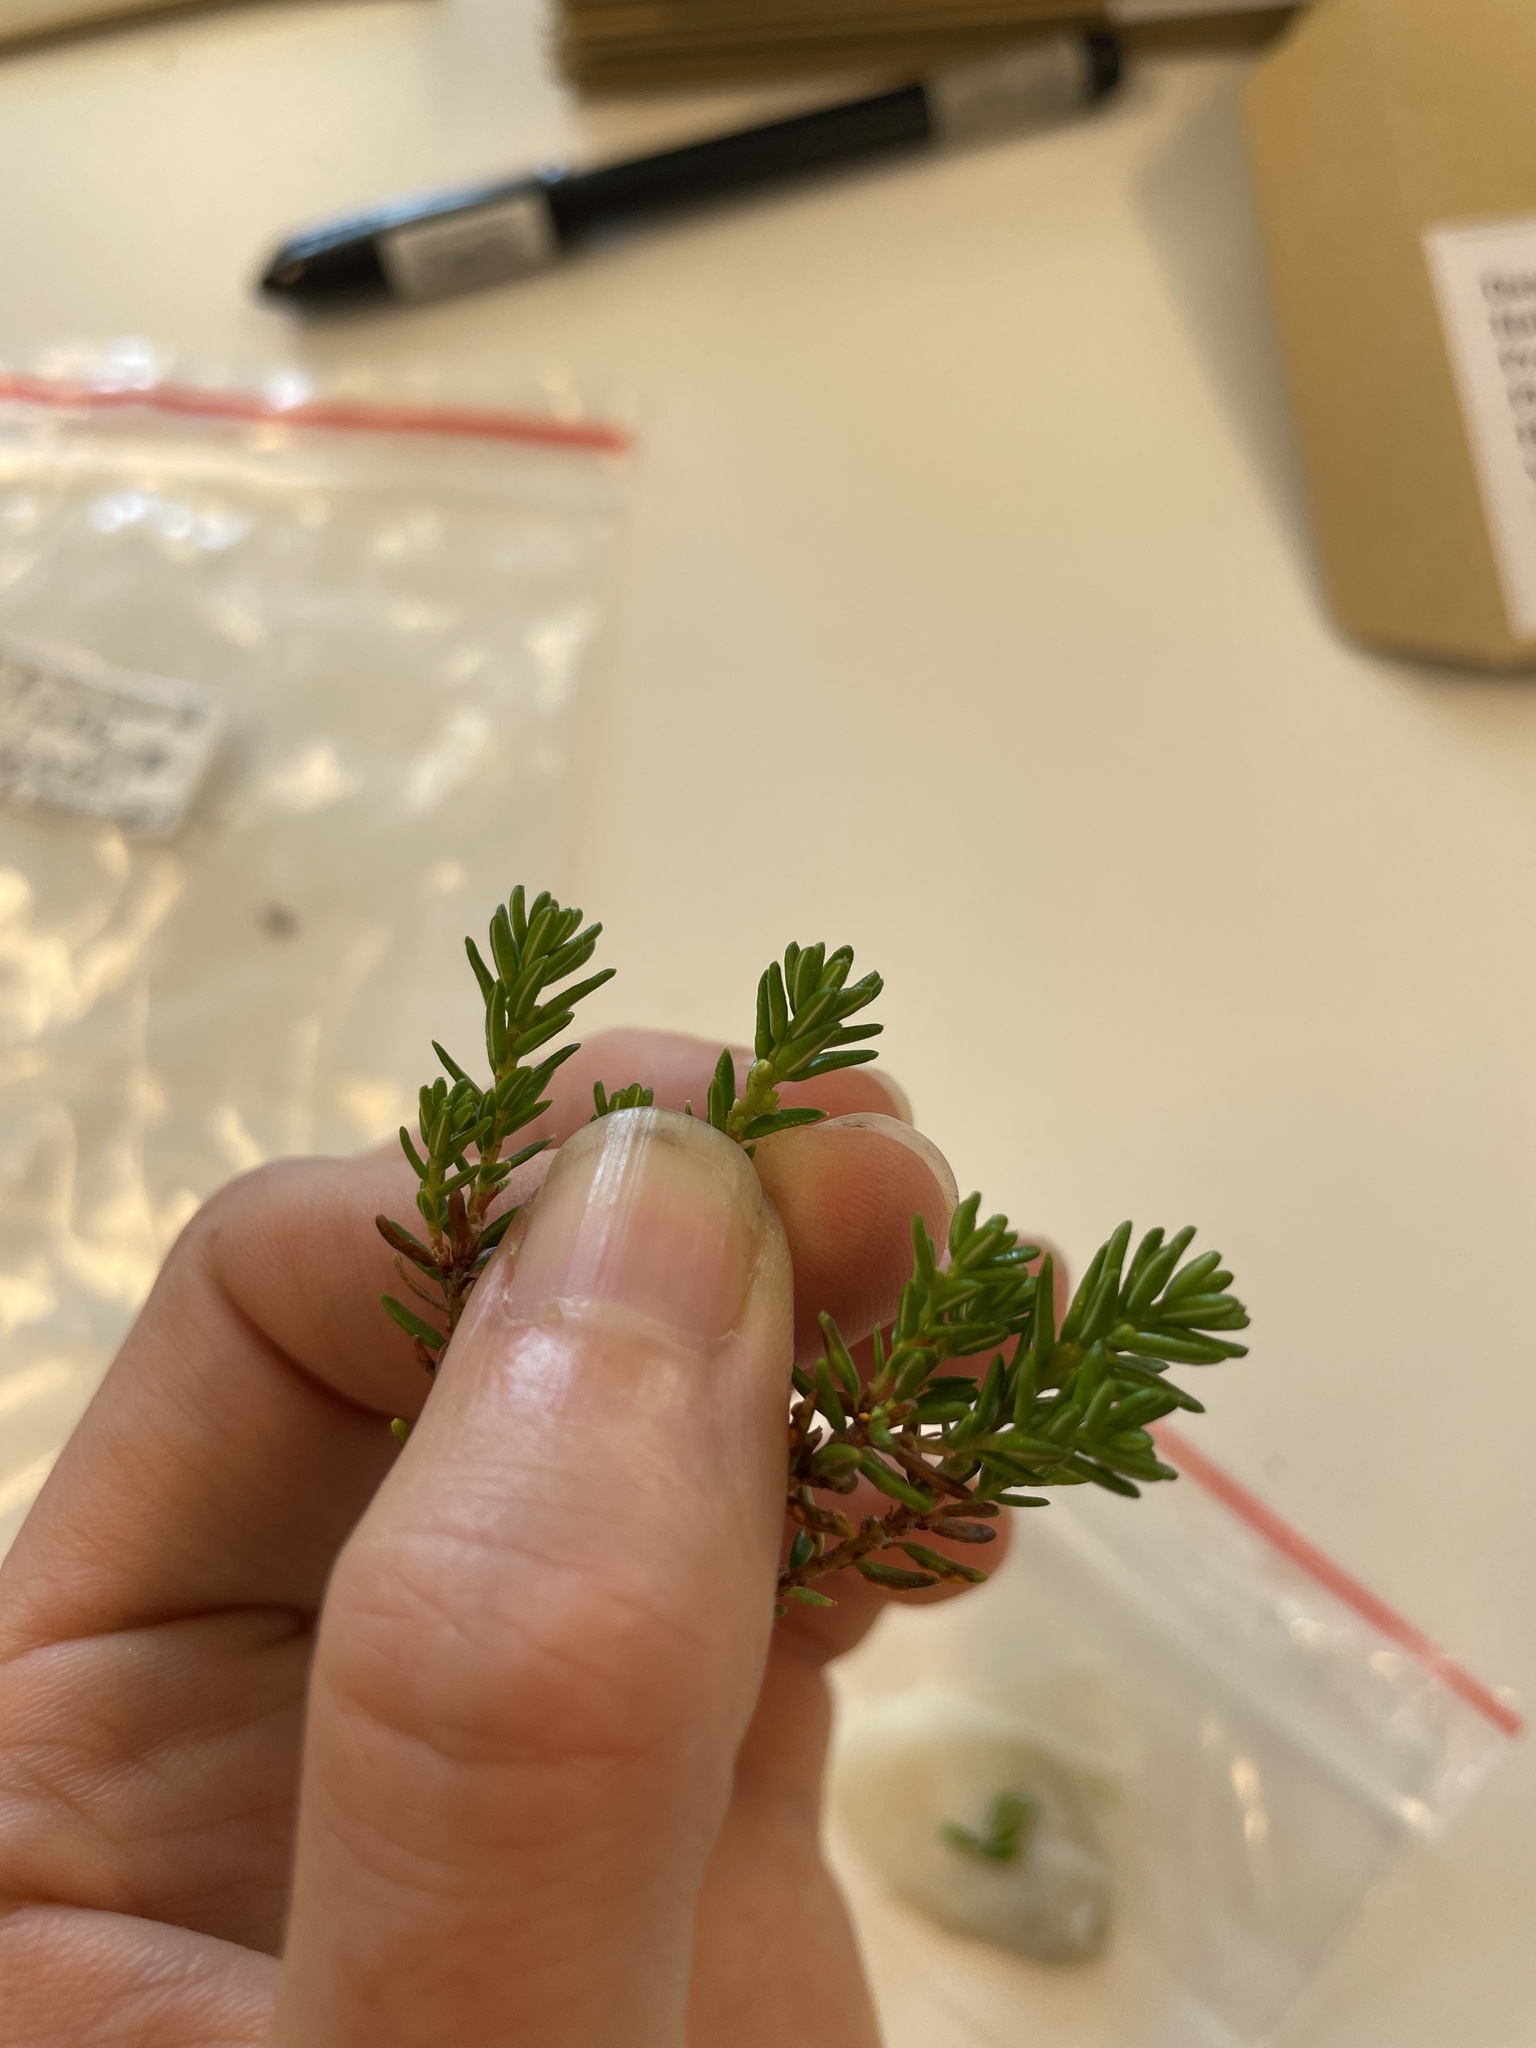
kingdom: Plantae
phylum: Tracheophyta
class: Magnoliopsida
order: Ericales
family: Ericaceae
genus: Empetrum
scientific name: Empetrum nigrum
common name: Black crowberry
